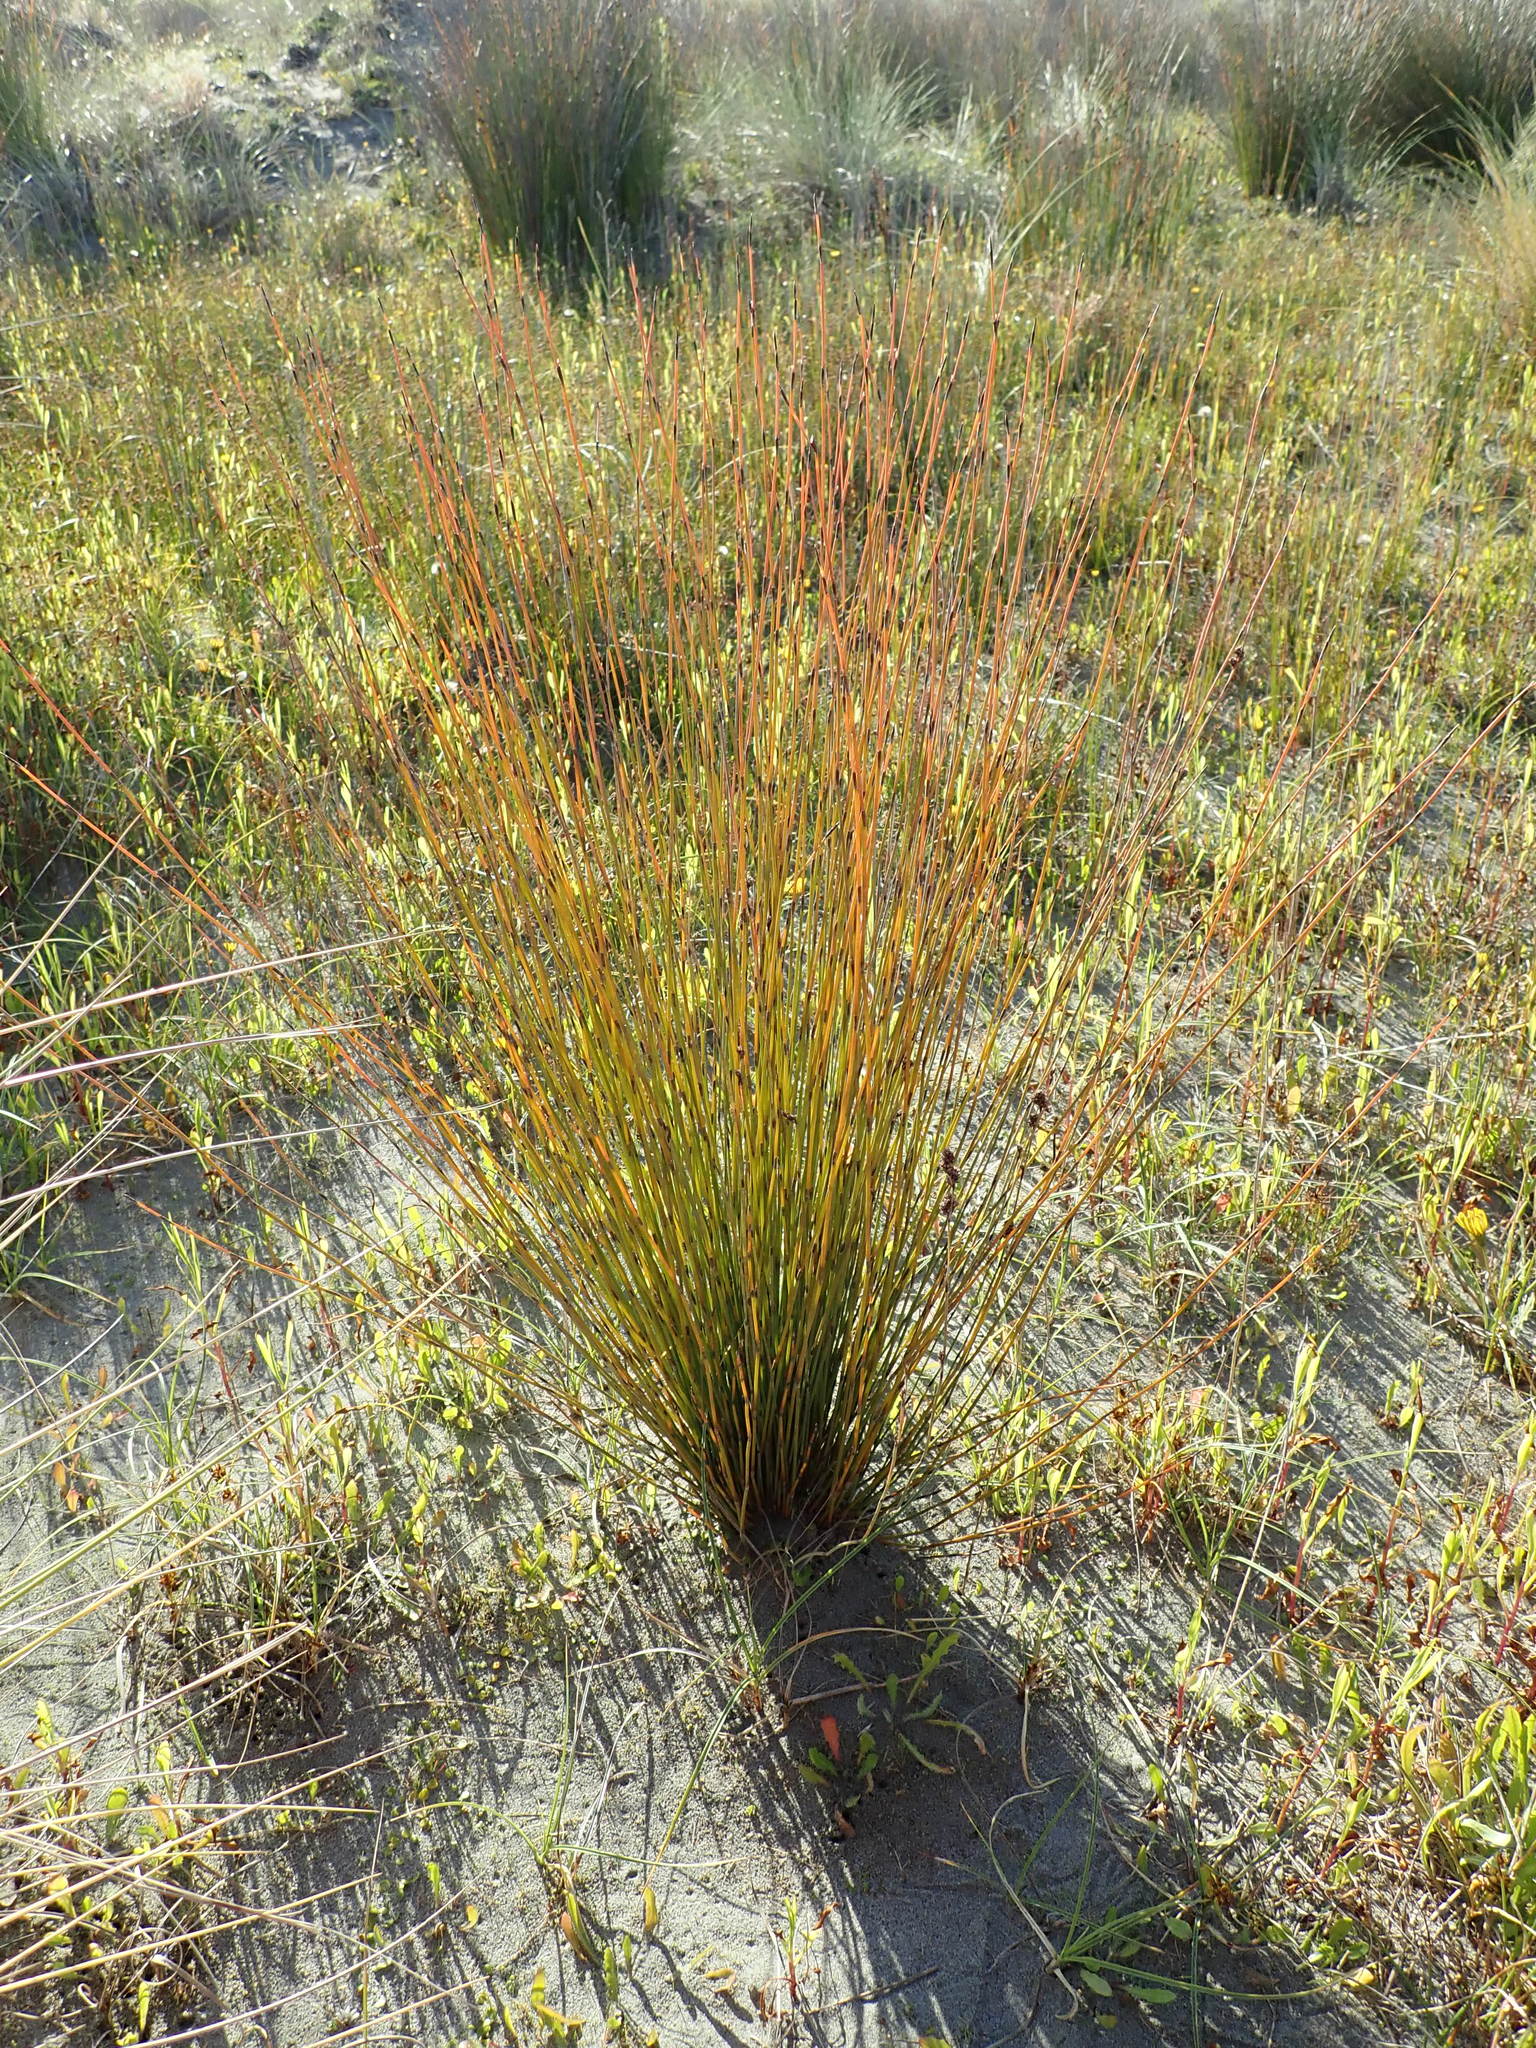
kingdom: Plantae
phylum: Tracheophyta
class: Liliopsida
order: Poales
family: Restionaceae
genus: Apodasmia
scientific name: Apodasmia similis
